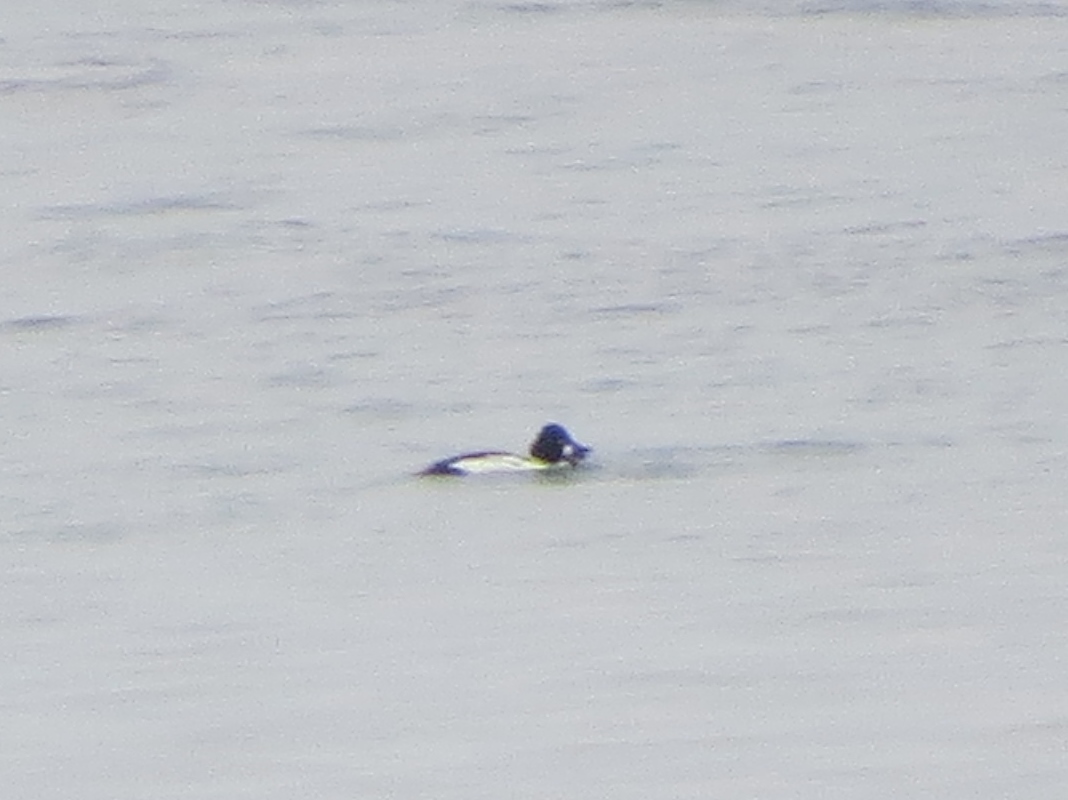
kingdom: Animalia
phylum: Chordata
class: Aves
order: Anseriformes
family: Anatidae
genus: Bucephala
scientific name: Bucephala clangula
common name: Common goldeneye
